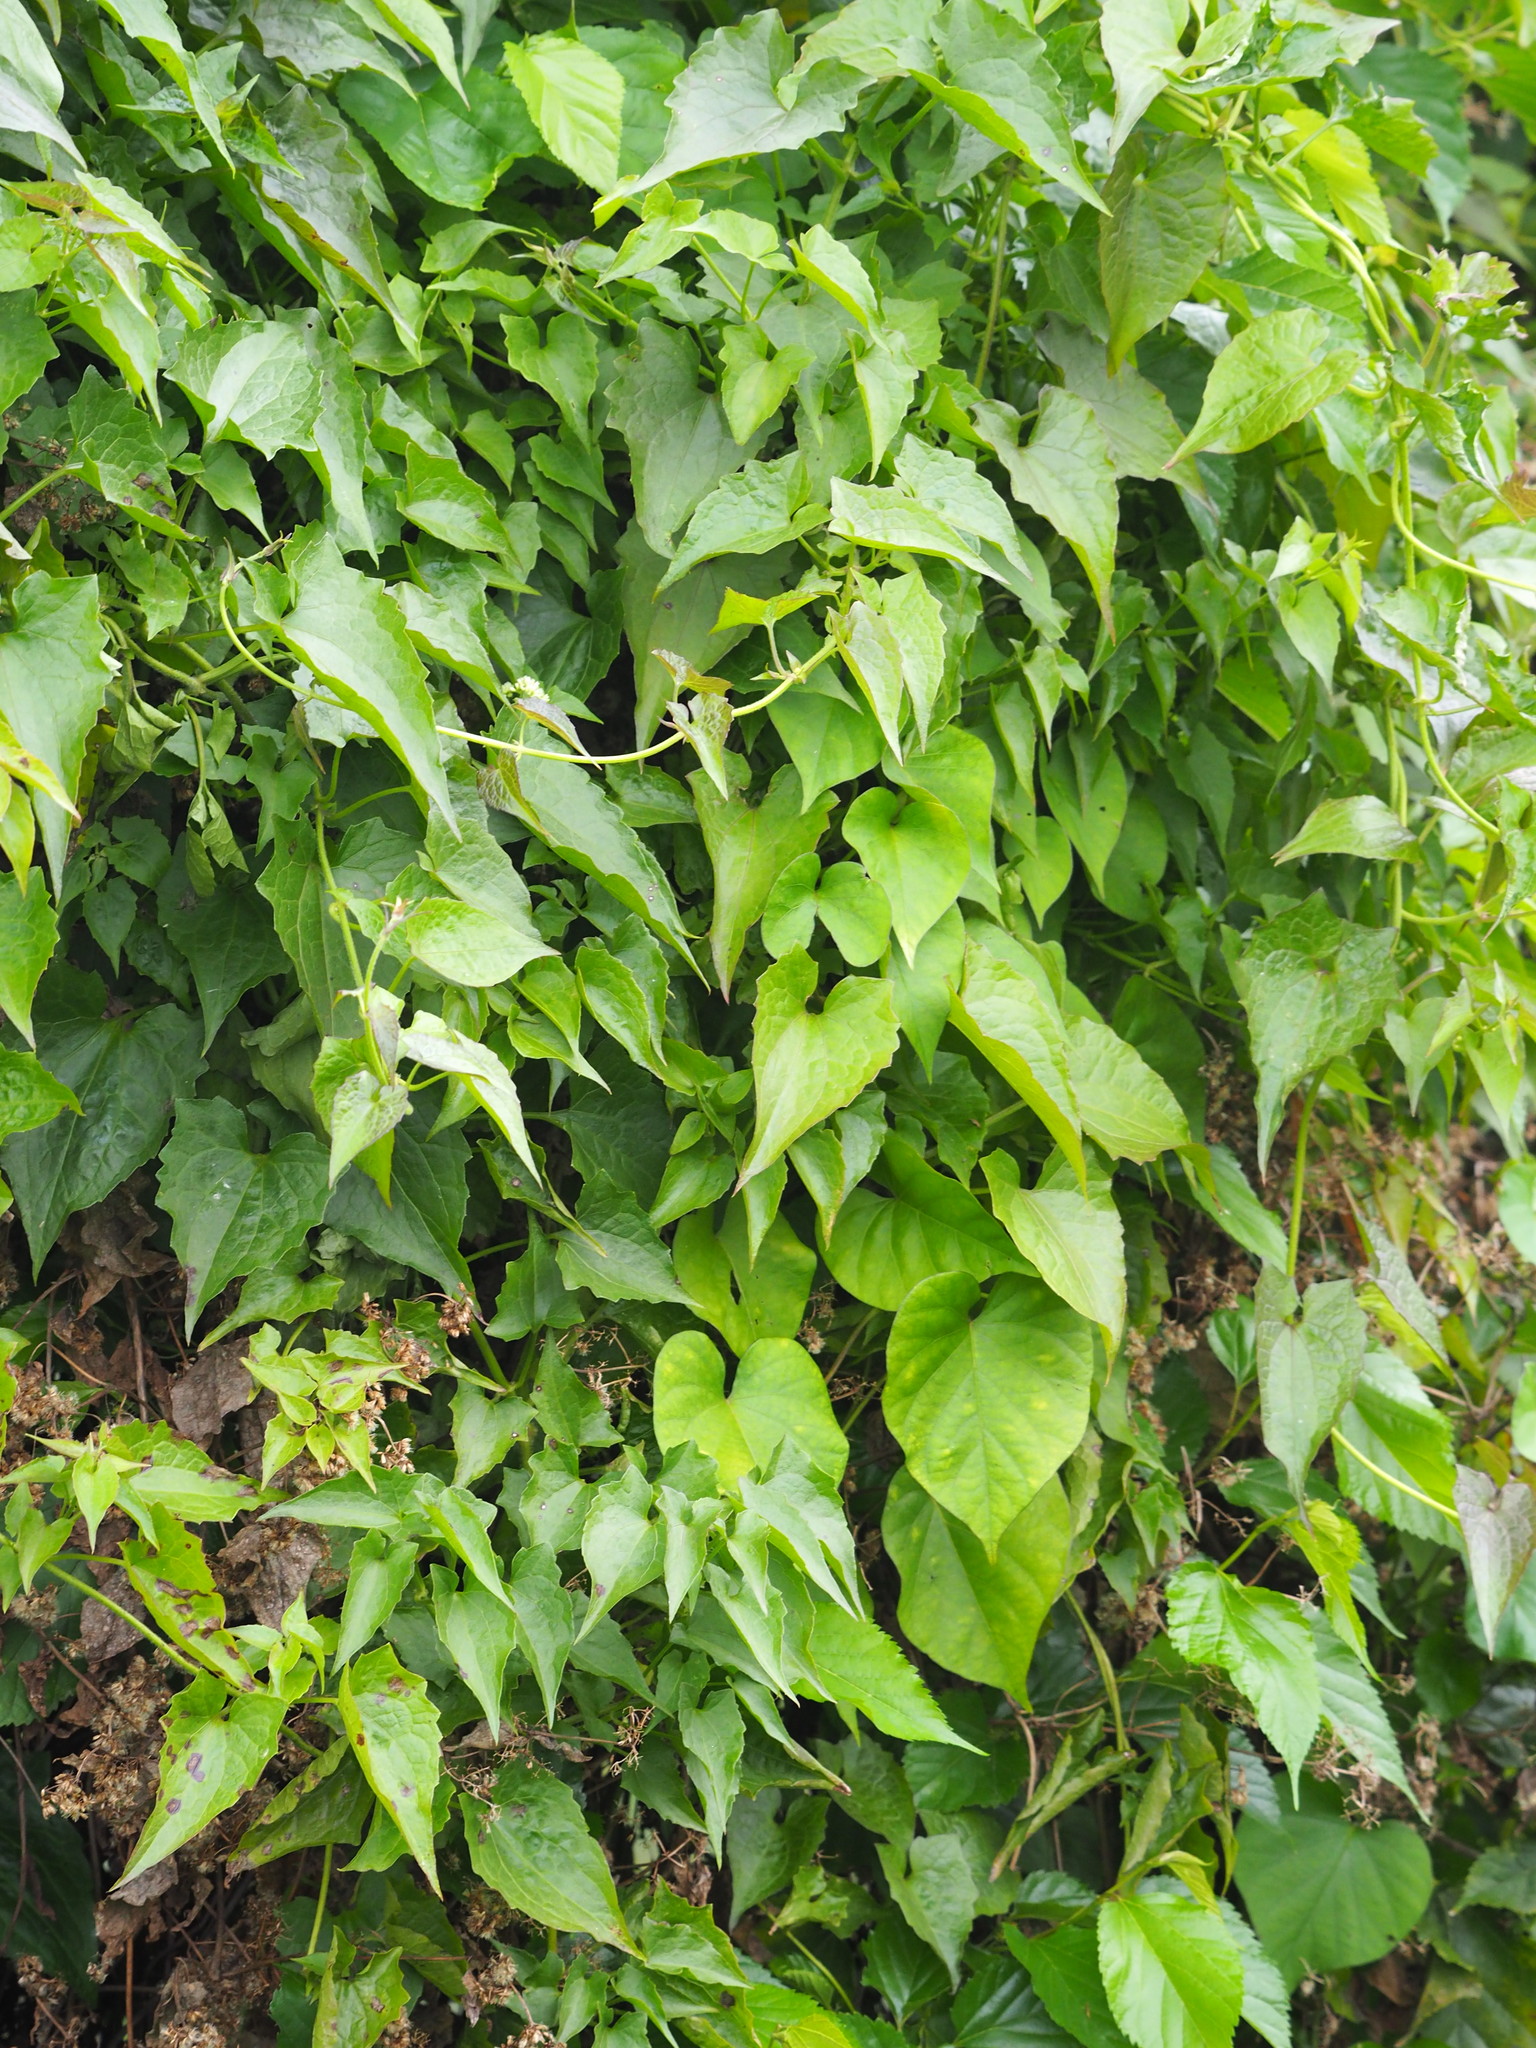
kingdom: Plantae
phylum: Tracheophyta
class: Magnoliopsida
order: Asterales
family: Asteraceae
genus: Mikania
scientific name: Mikania micrantha
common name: Mile-a-minute
